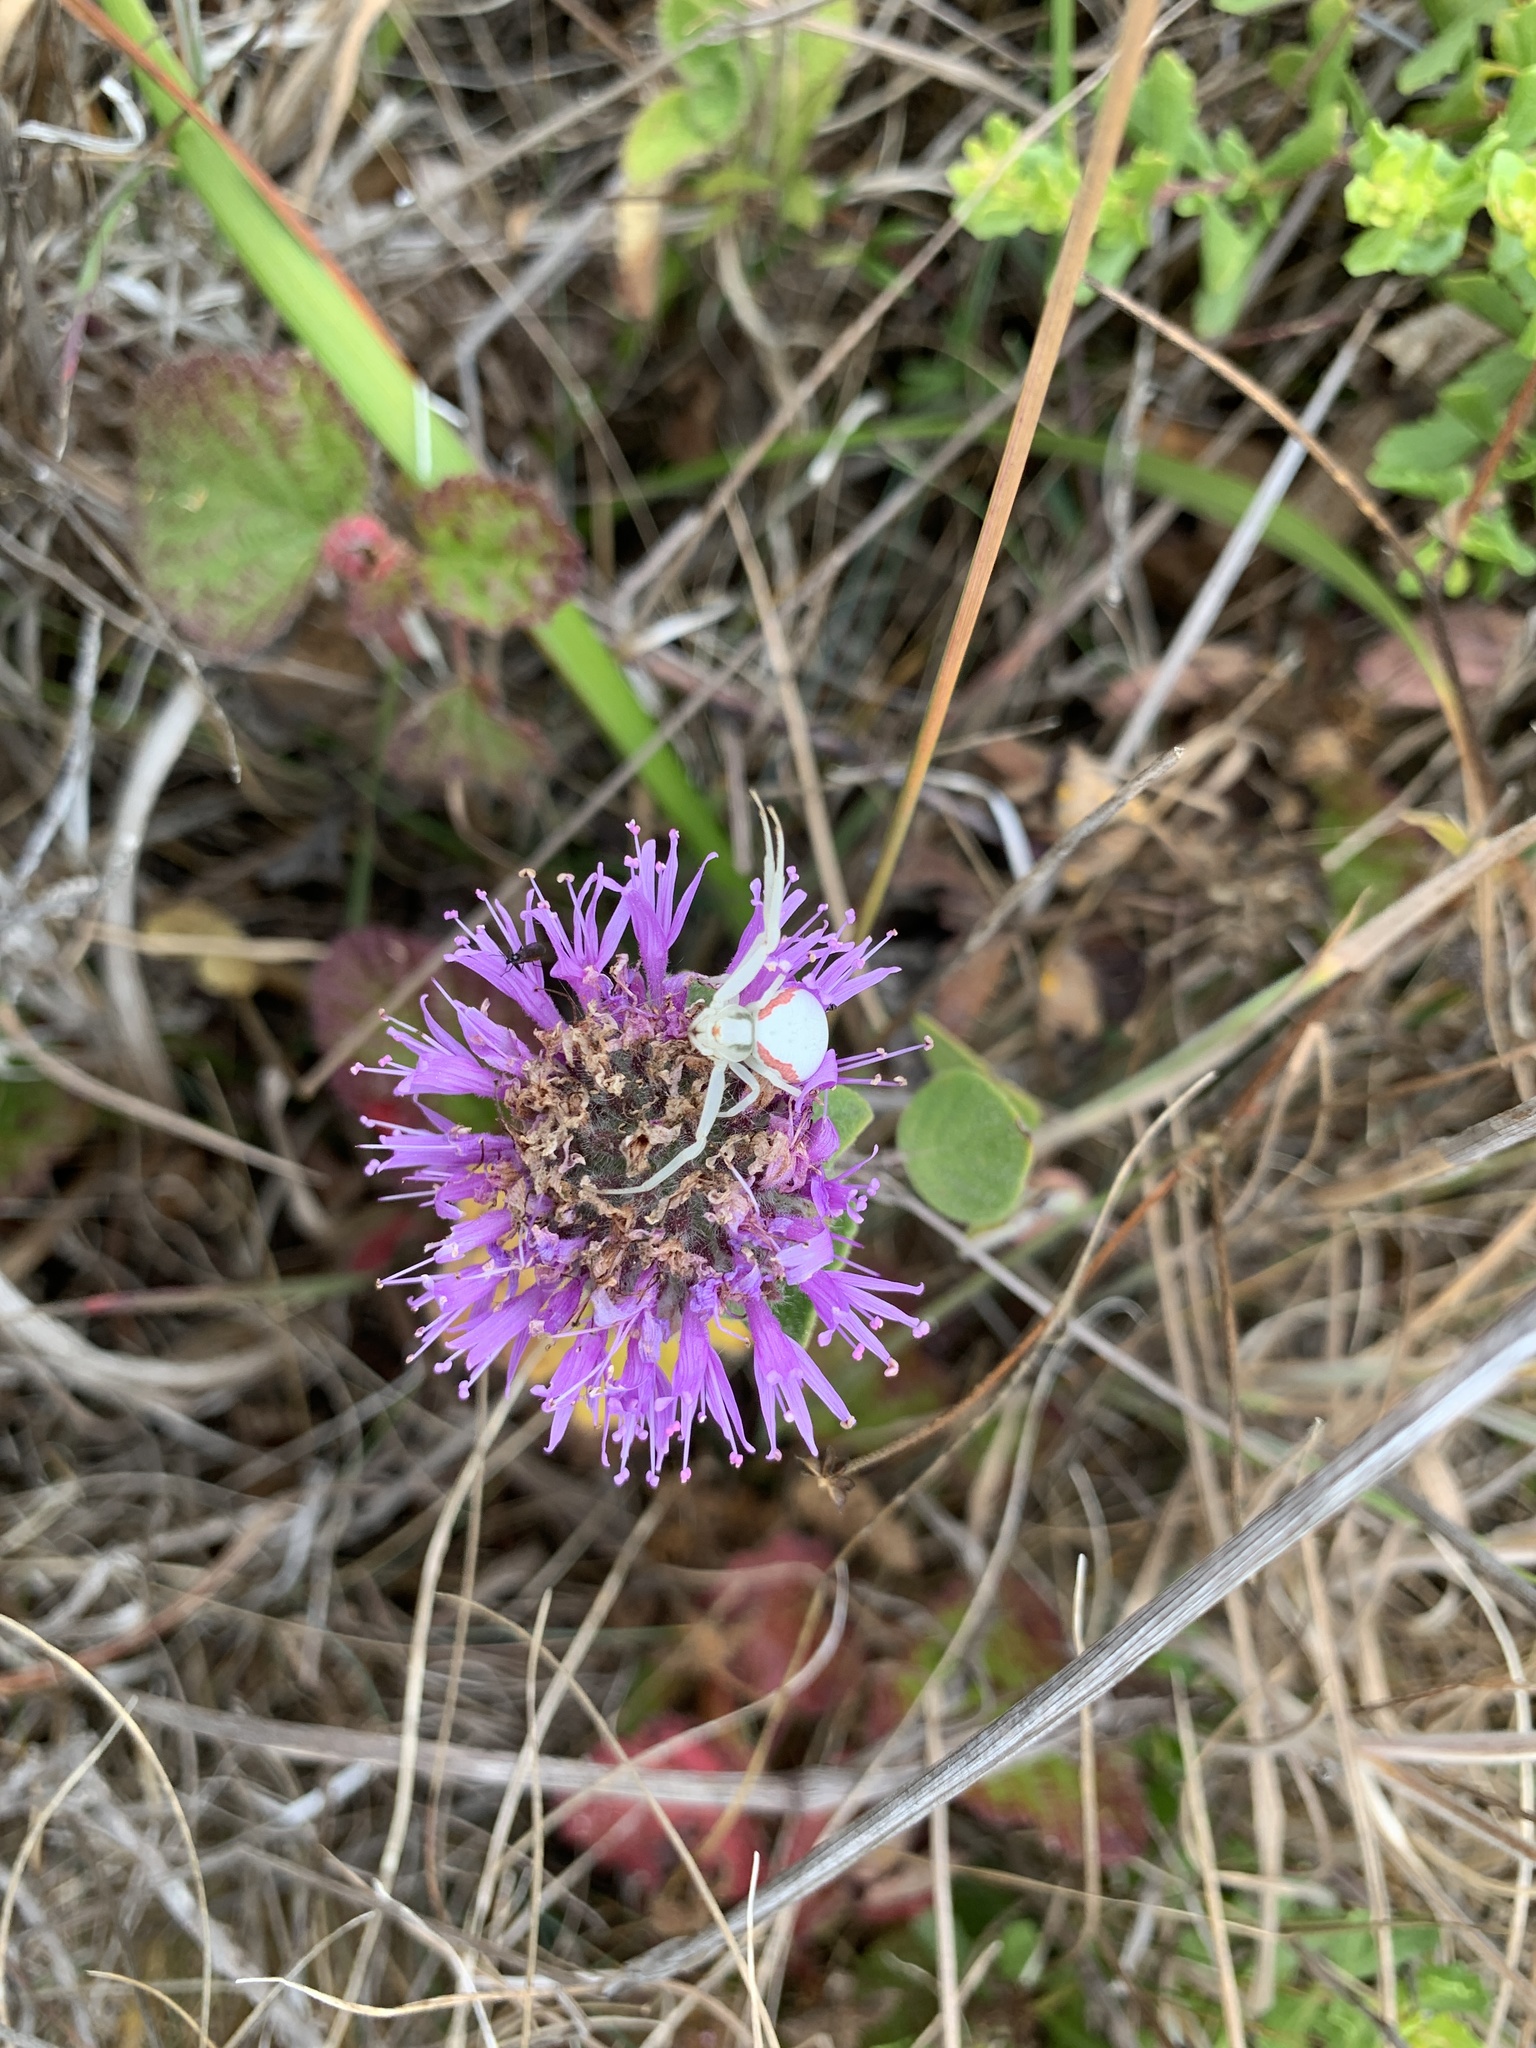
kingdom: Animalia
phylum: Arthropoda
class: Arachnida
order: Araneae
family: Thomisidae
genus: Misumena
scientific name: Misumena vatia
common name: Goldenrod crab spider
